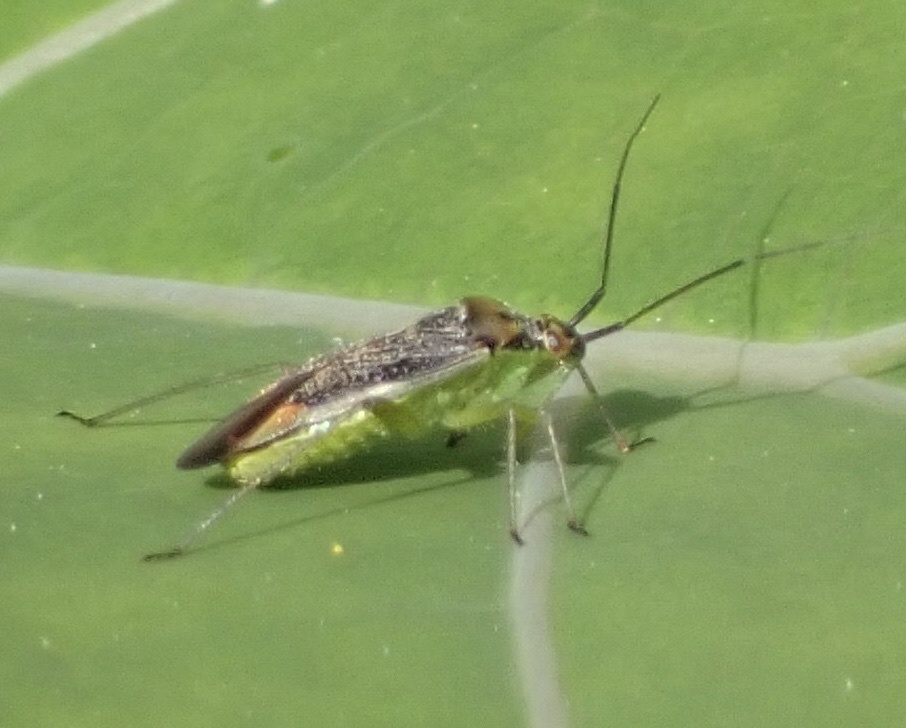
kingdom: Animalia
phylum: Arthropoda
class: Insecta
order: Hemiptera
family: Miridae
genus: Closterotomus
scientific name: Closterotomus trivialis
